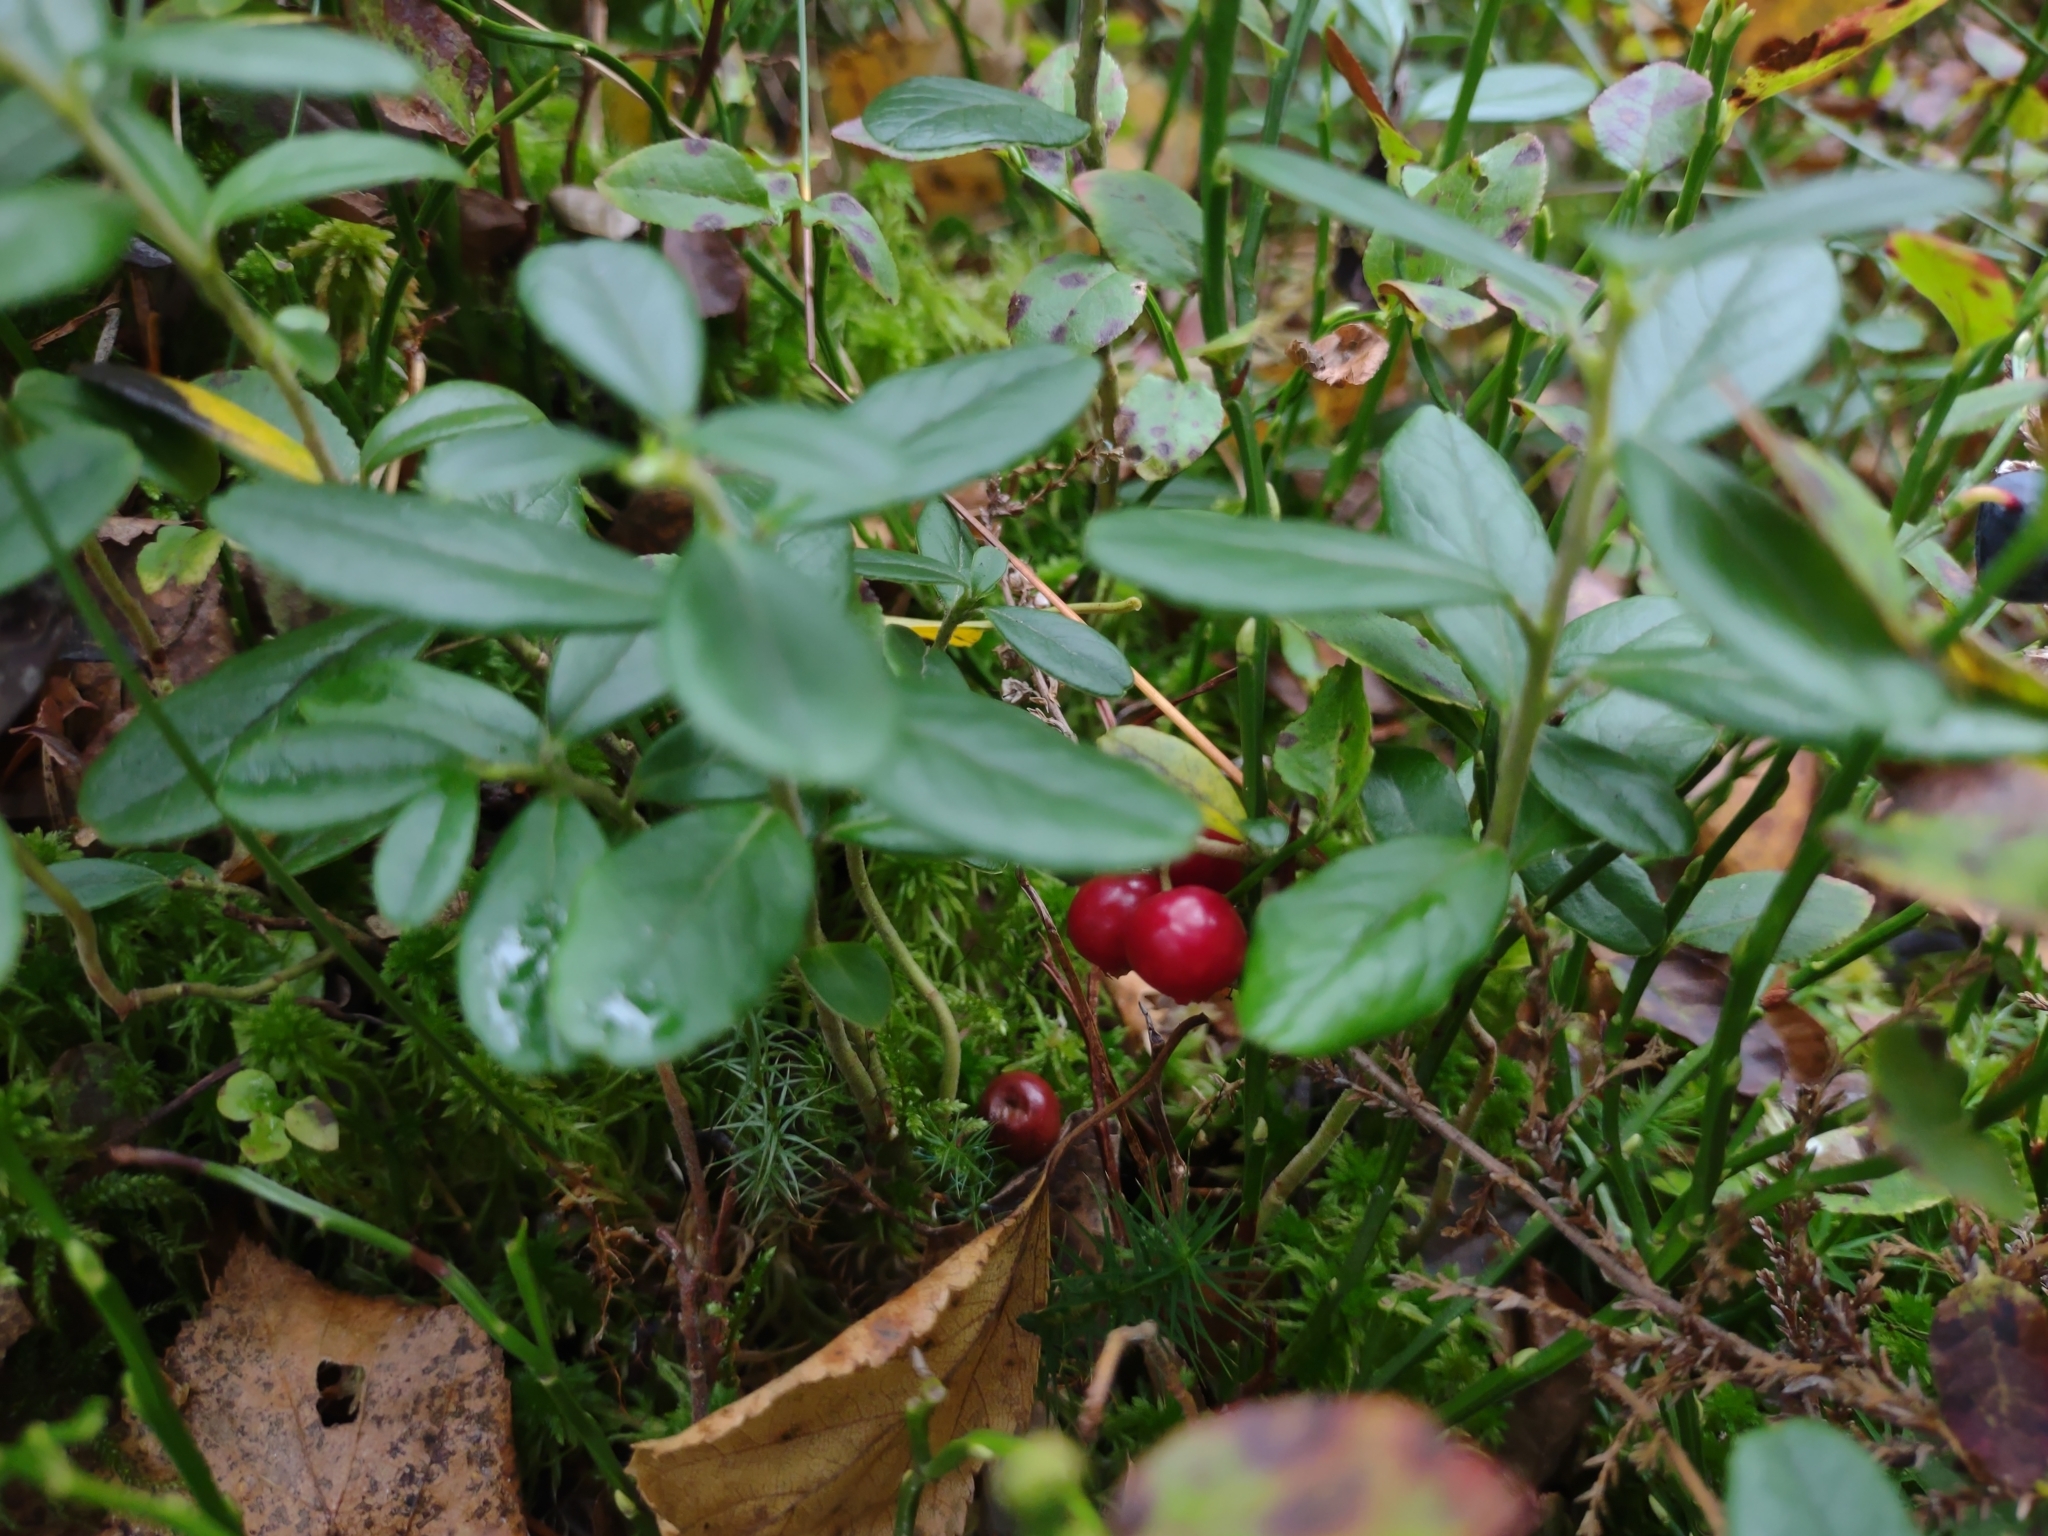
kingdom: Plantae
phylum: Tracheophyta
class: Magnoliopsida
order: Ericales
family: Ericaceae
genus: Vaccinium
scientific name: Vaccinium vitis-idaea
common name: Cowberry
